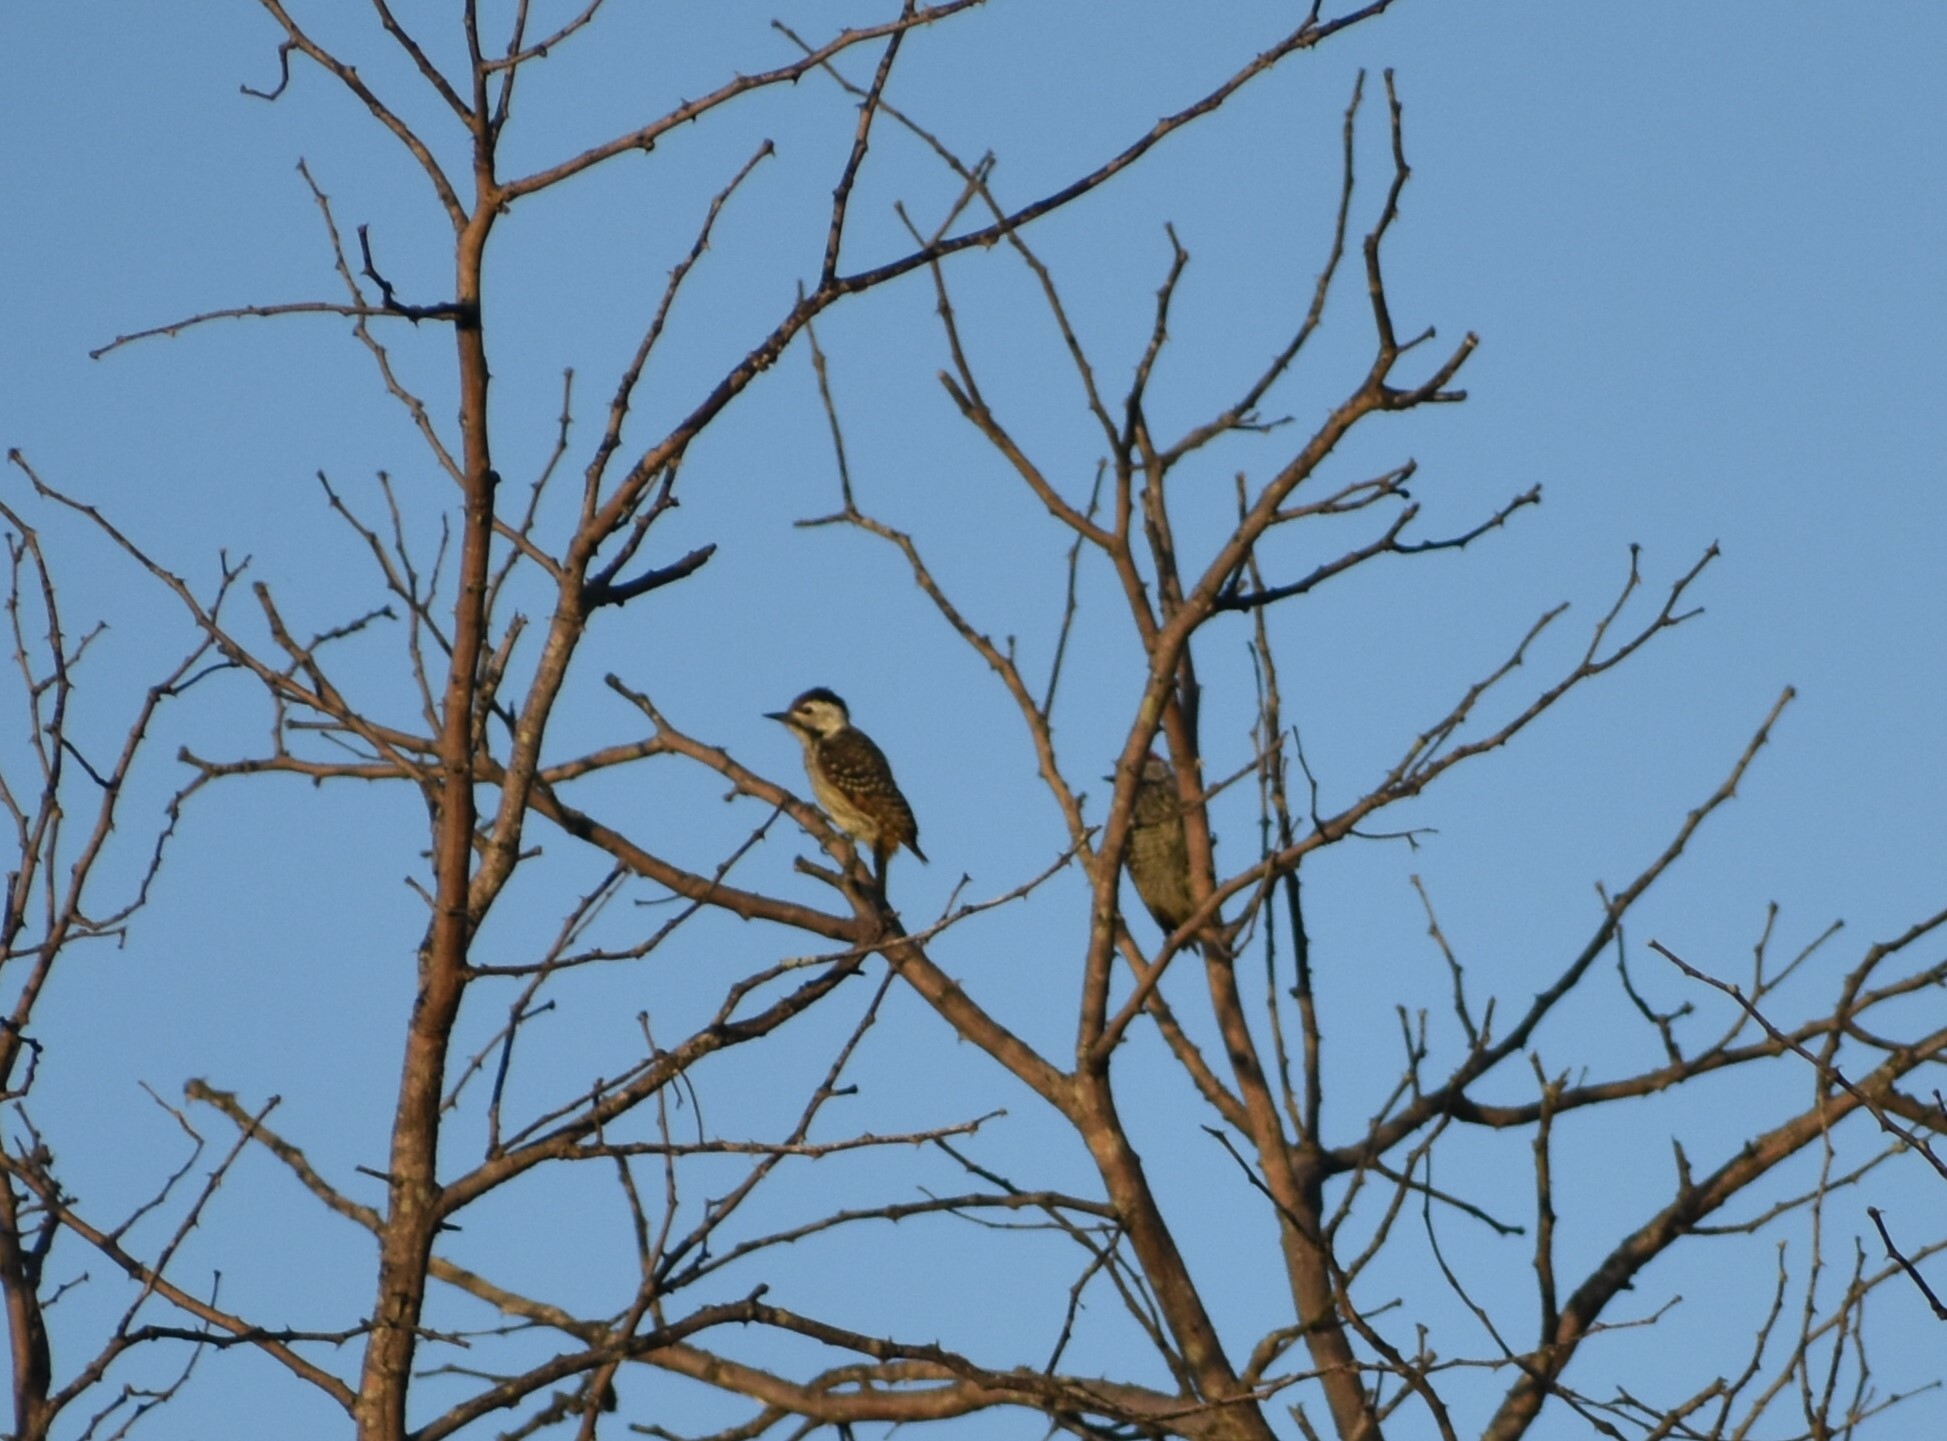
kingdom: Animalia
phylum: Chordata
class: Aves
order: Piciformes
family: Picidae
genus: Dendropicos
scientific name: Dendropicos fuscescens
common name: Cardinal woodpecker
